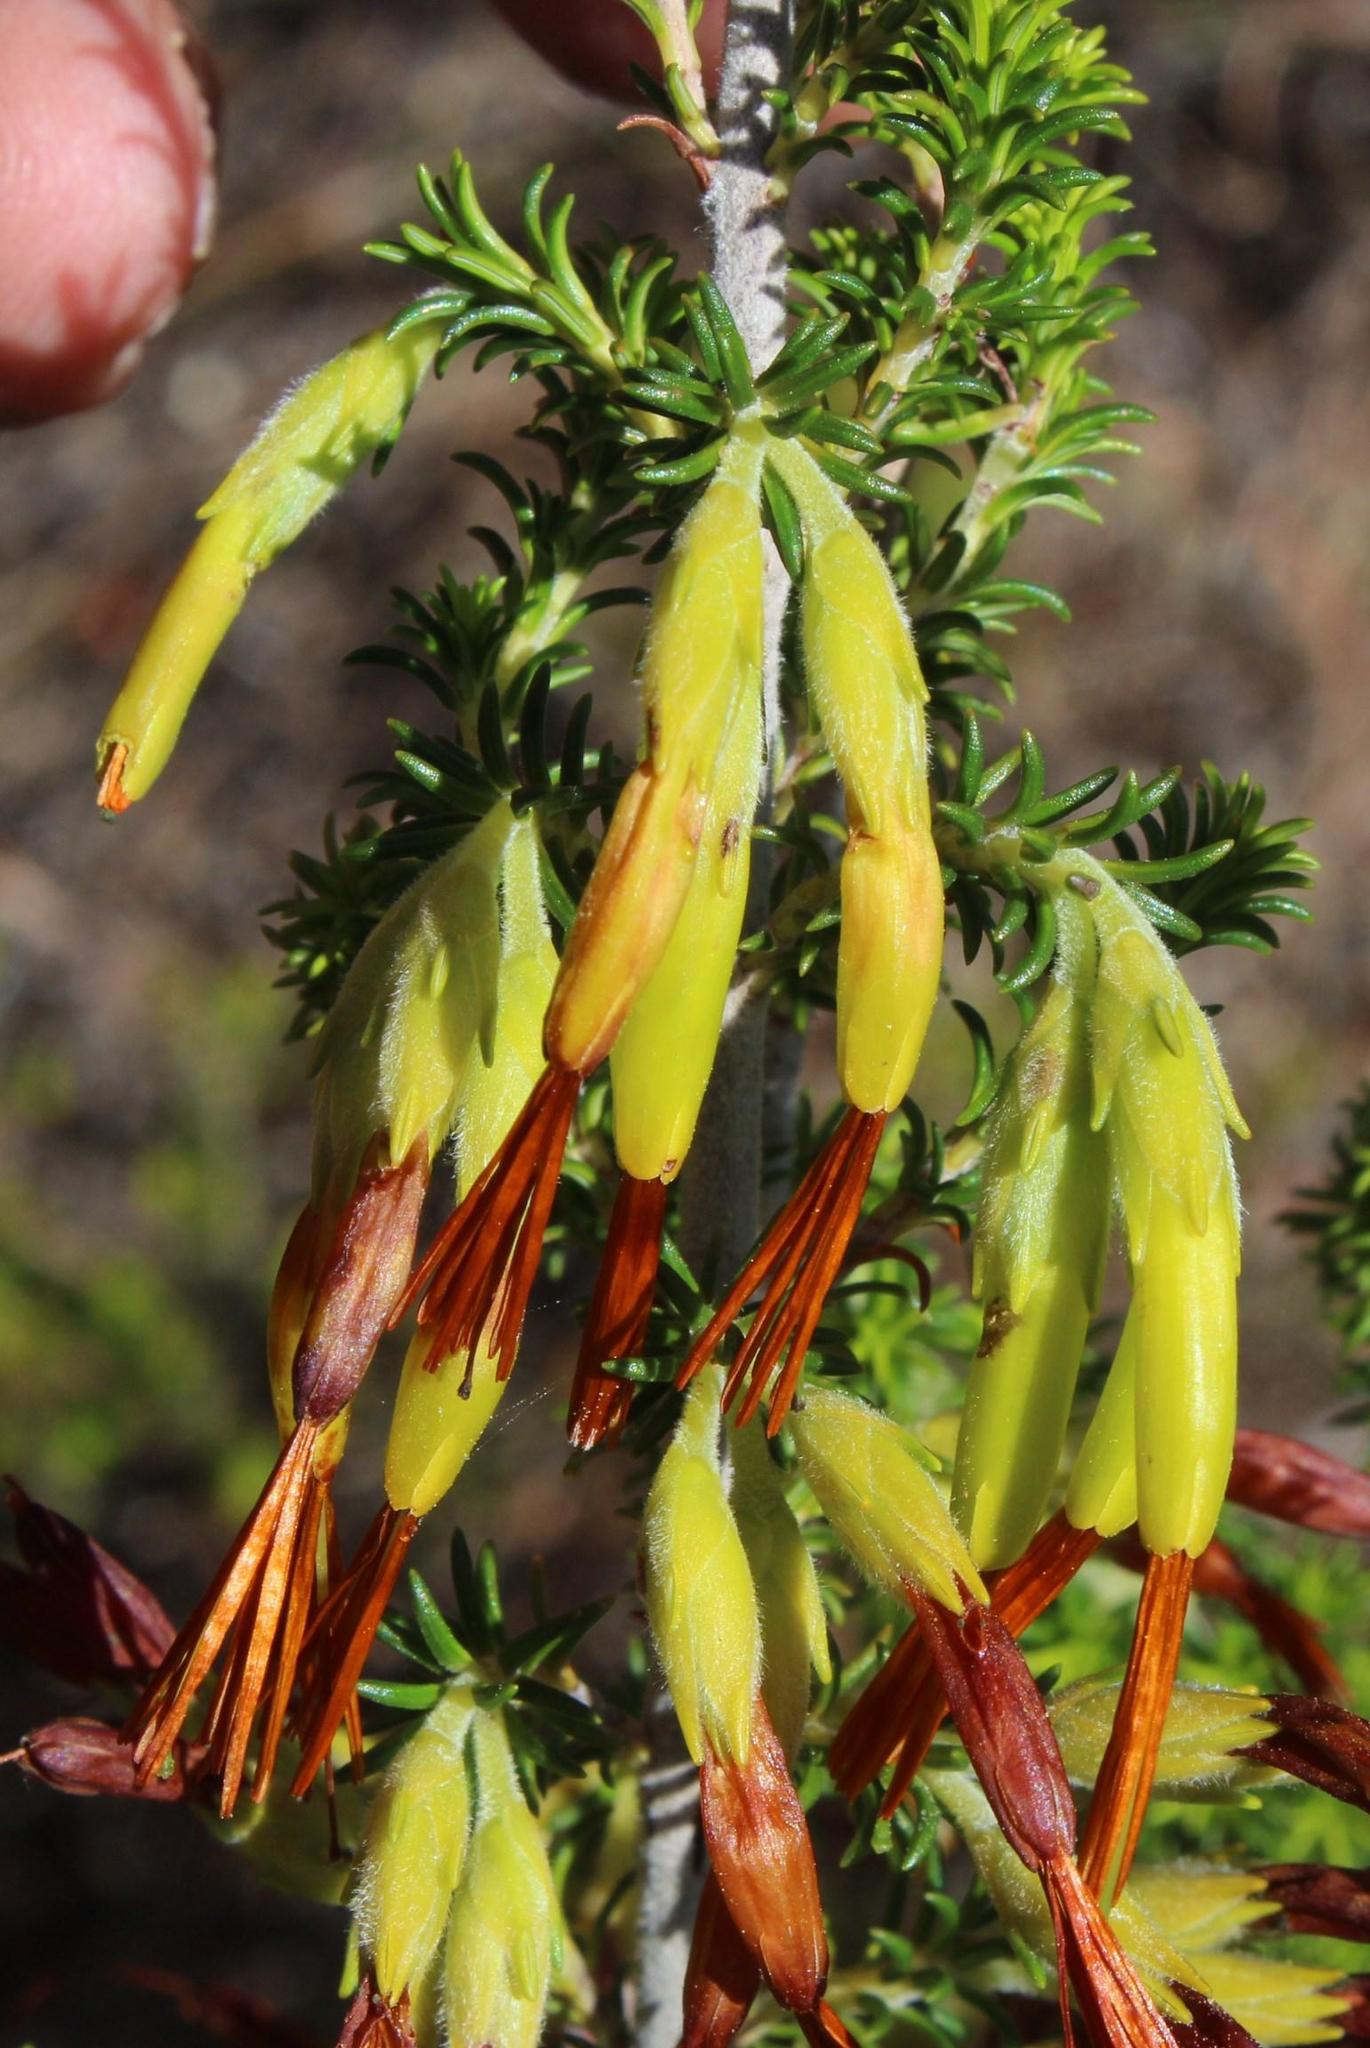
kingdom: Plantae
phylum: Tracheophyta
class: Magnoliopsida
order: Ericales
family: Ericaceae
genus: Erica
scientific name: Erica coccinea
